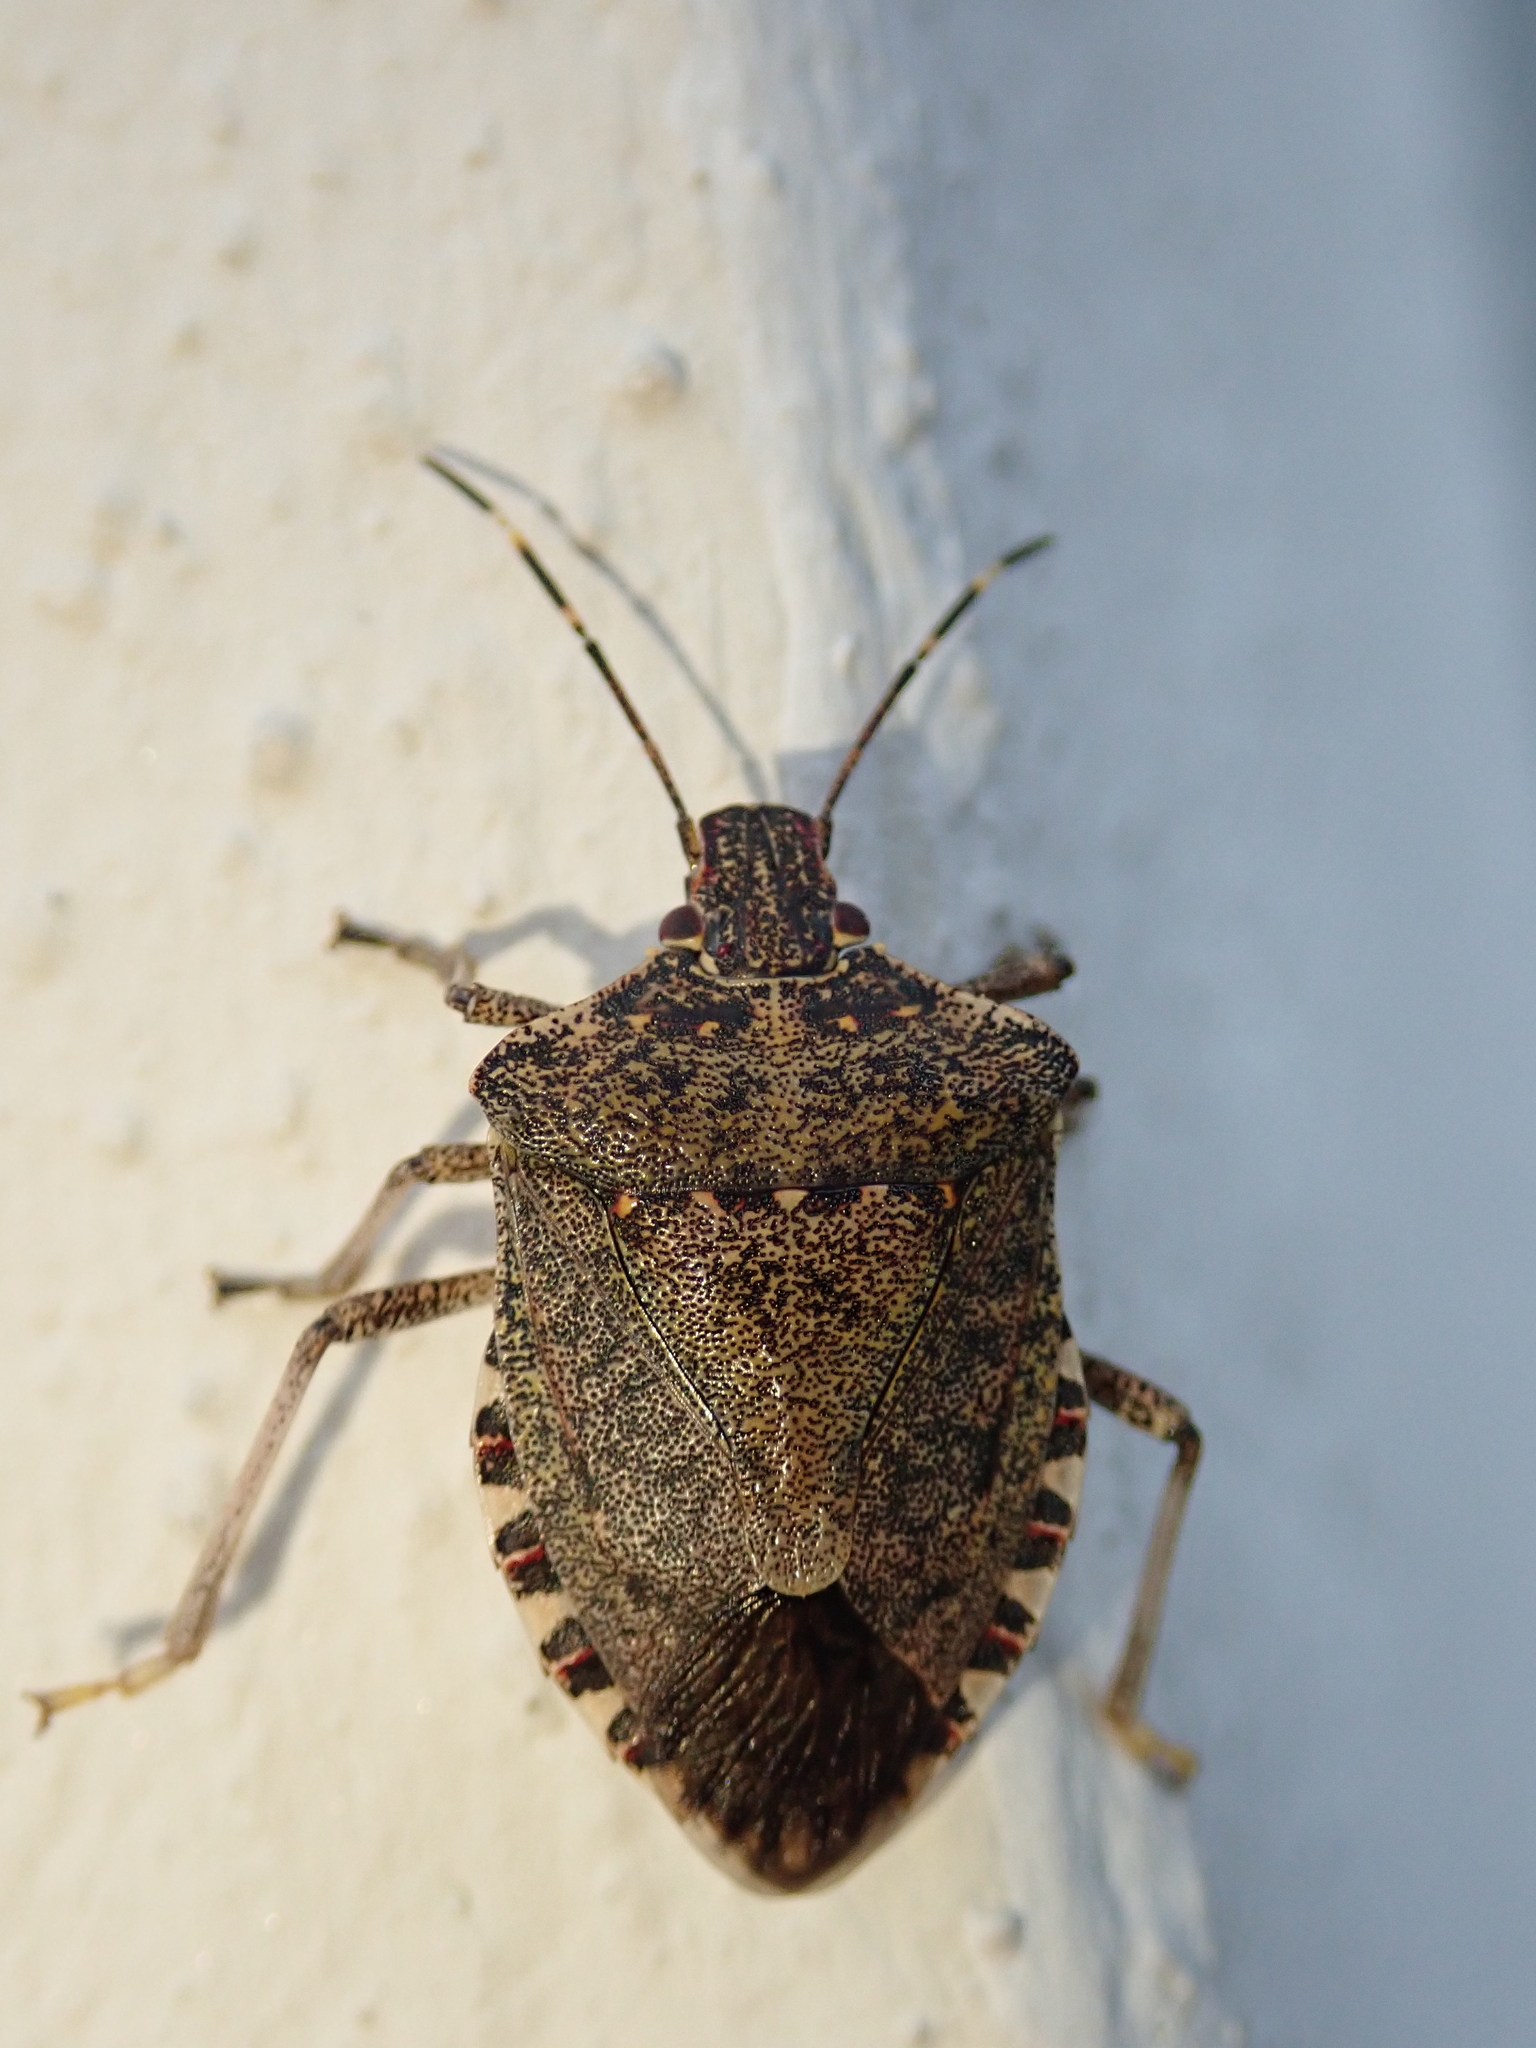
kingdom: Animalia
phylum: Arthropoda
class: Insecta
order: Hemiptera
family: Pentatomidae
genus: Halyomorpha
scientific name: Halyomorpha halys
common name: Brown marmorated stink bug
